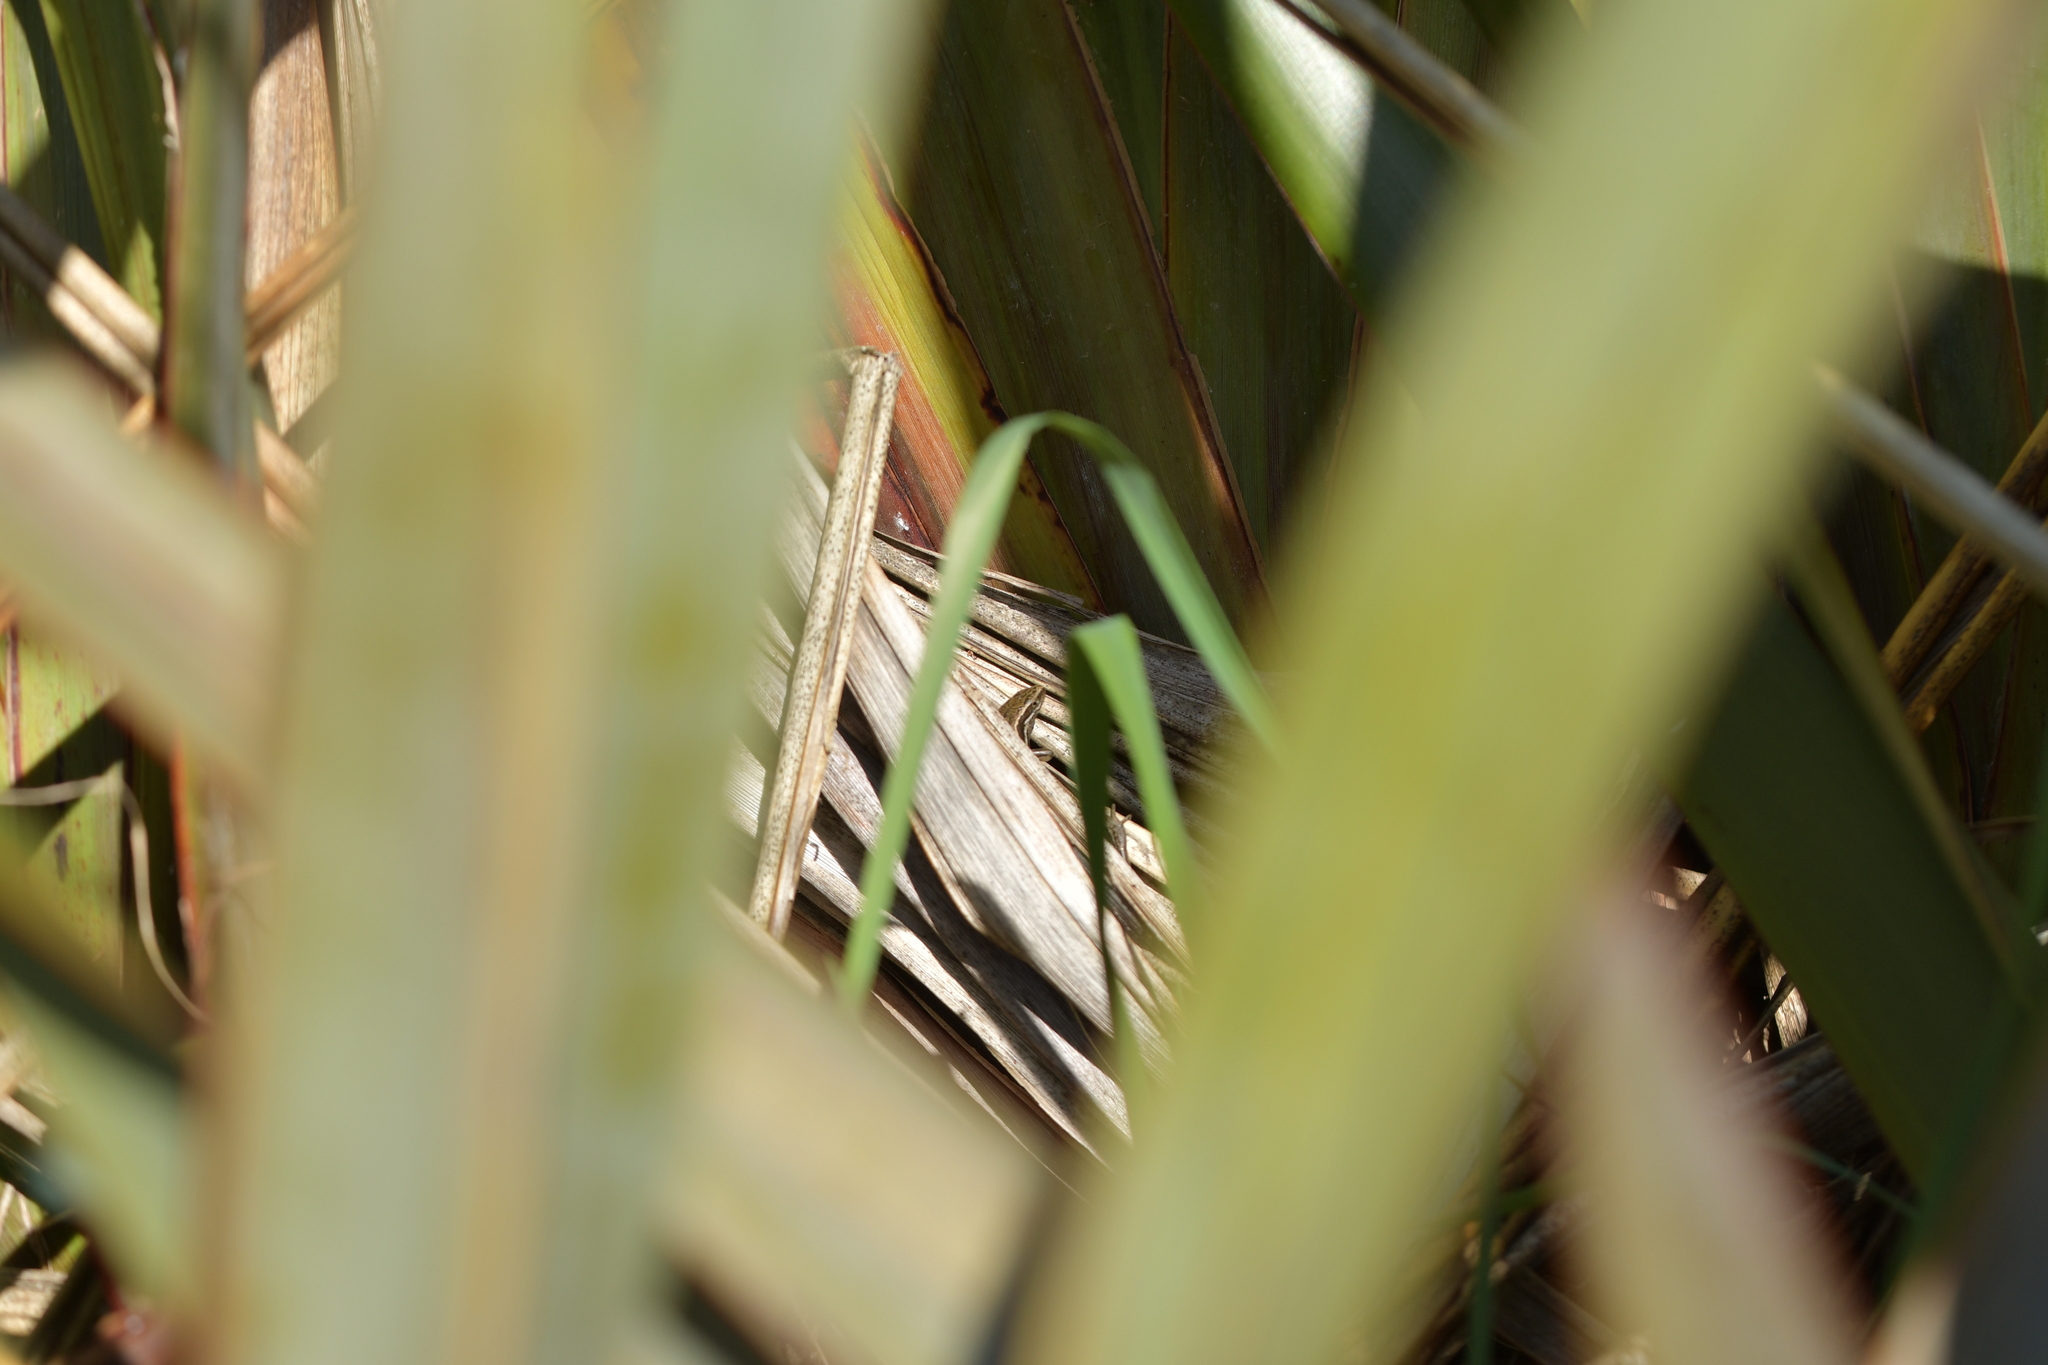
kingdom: Animalia
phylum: Chordata
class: Squamata
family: Scincidae
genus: Oligosoma
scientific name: Oligosoma polychroma
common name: Common new zealand skink
